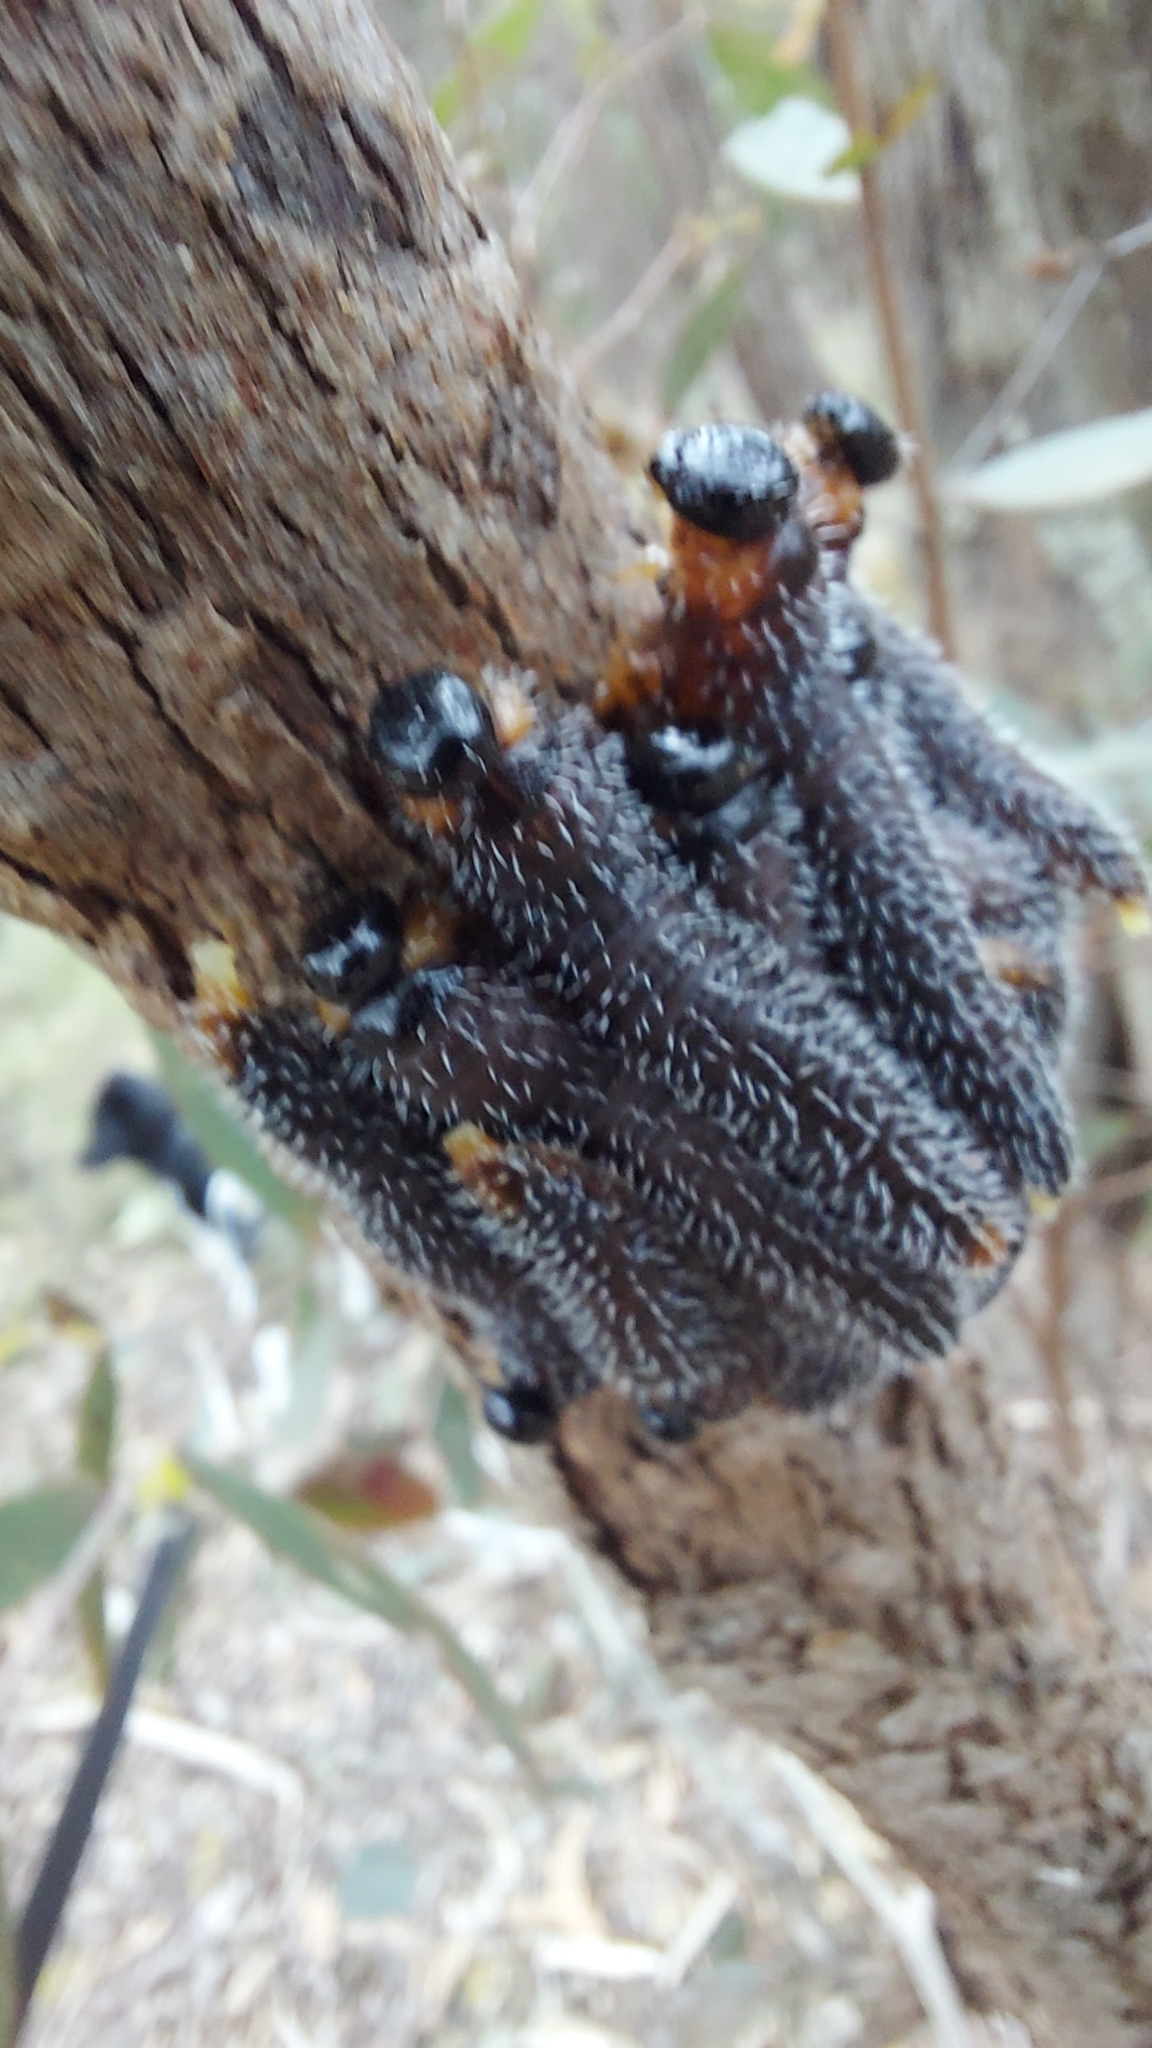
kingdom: Animalia
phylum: Arthropoda
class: Insecta
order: Hymenoptera
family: Pergidae
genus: Perga
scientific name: Perga affinis
